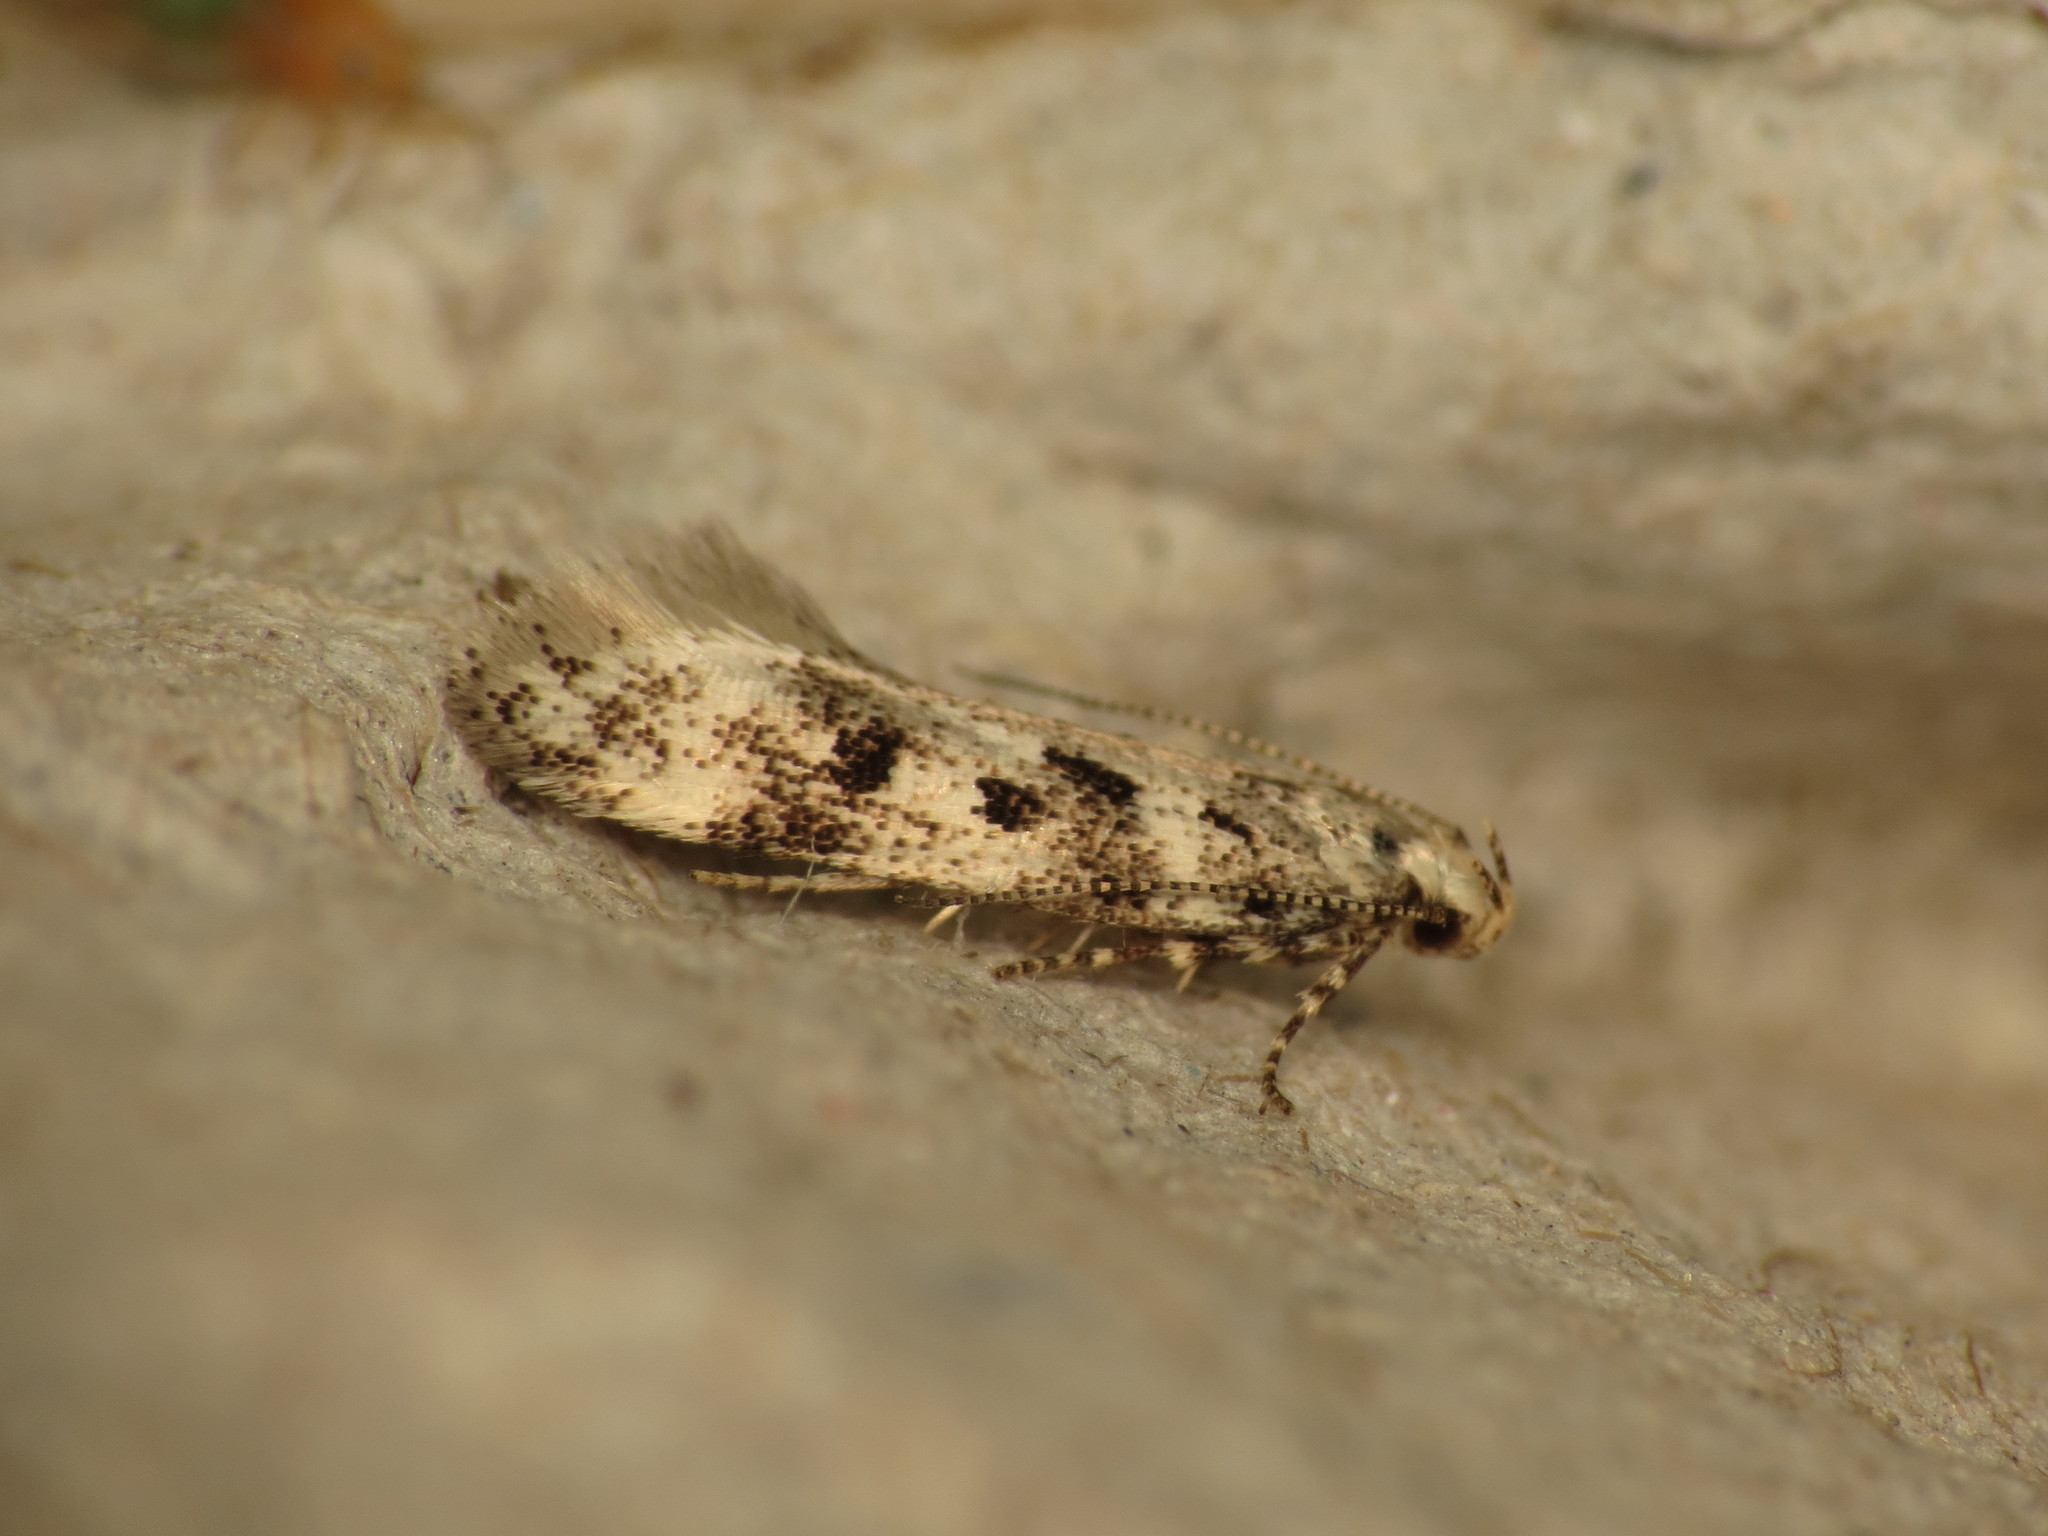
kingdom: Animalia
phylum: Arthropoda
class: Insecta
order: Lepidoptera
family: Gelechiidae
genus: Chionodes
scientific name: Chionodes electella
